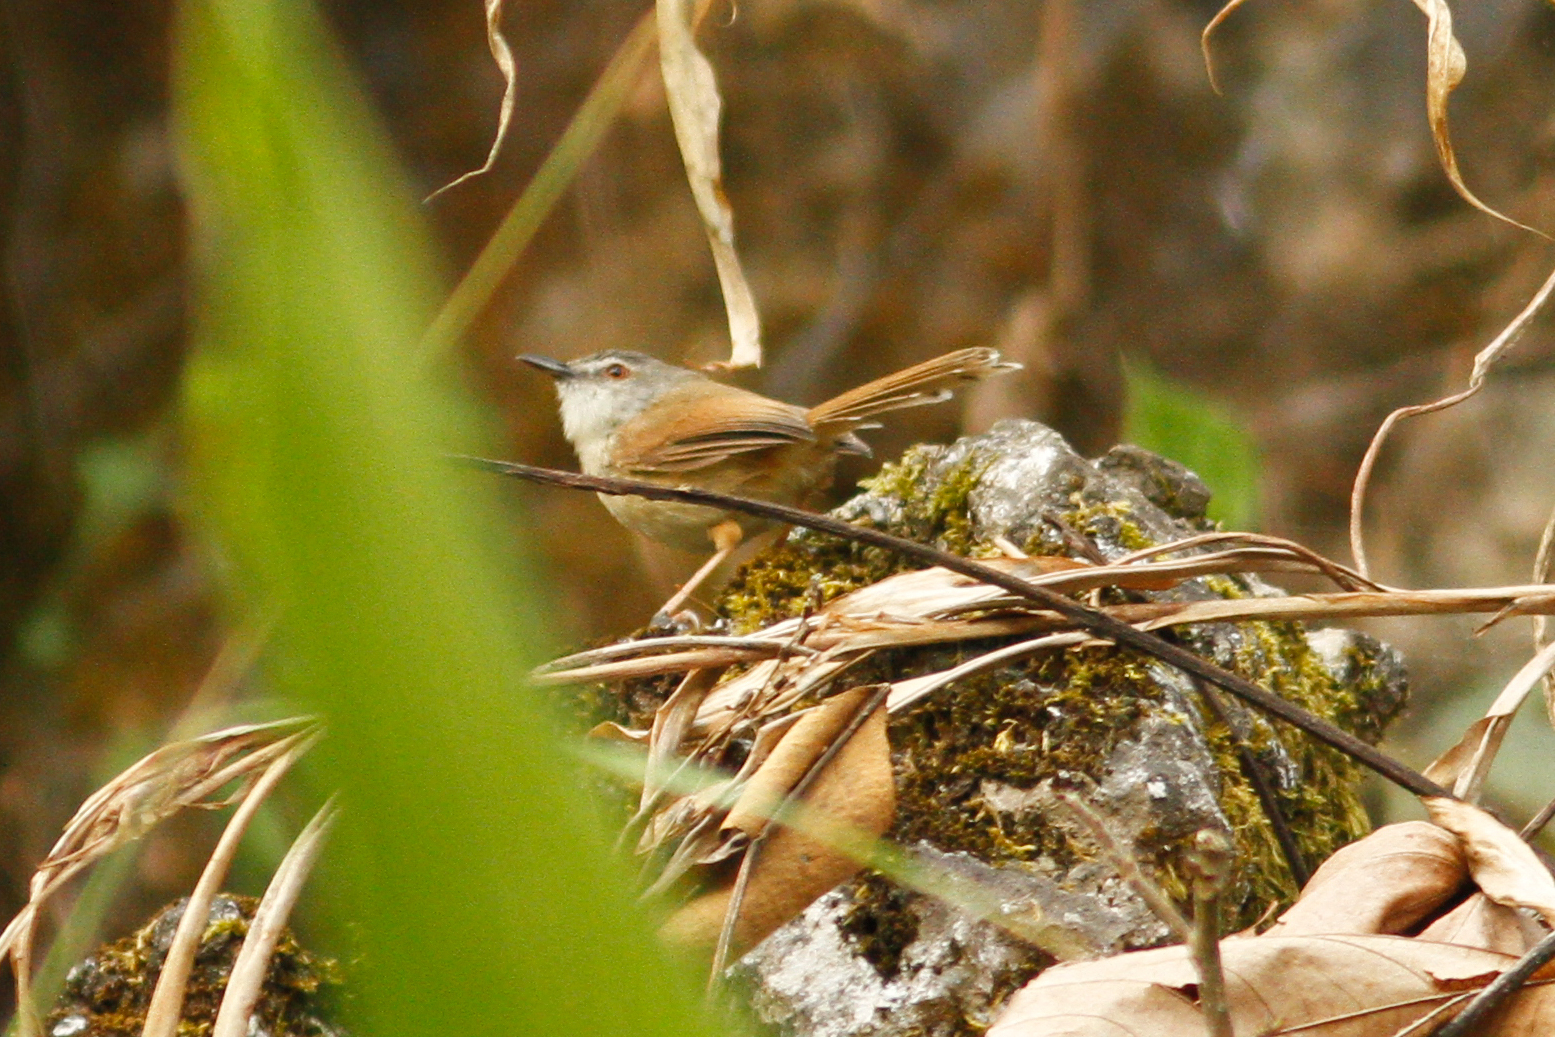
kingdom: Animalia
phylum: Chordata
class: Aves
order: Passeriformes
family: Cisticolidae
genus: Prinia
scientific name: Prinia rufescens
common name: Rufescent prinia
